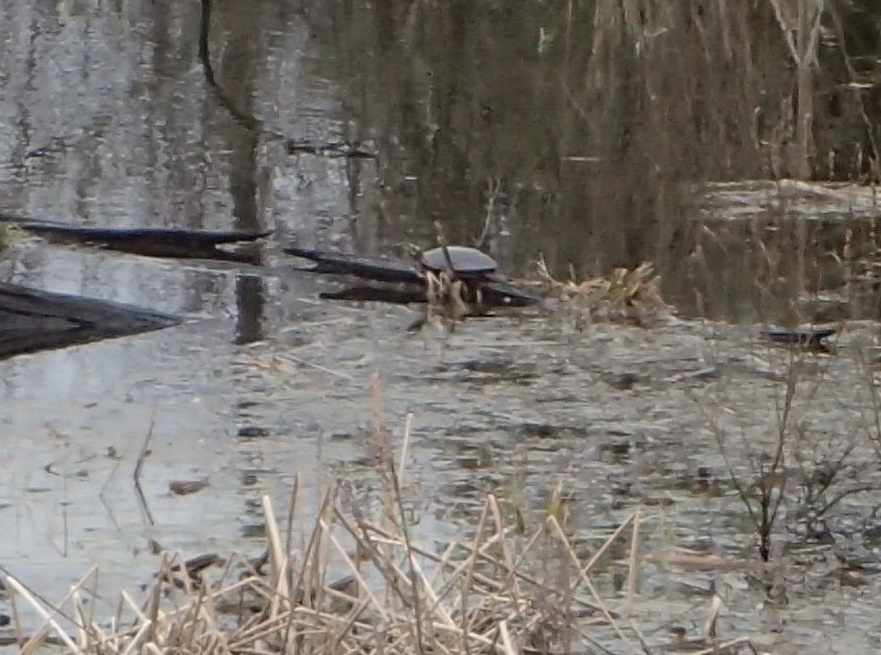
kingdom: Animalia
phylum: Chordata
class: Testudines
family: Emydidae
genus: Chrysemys
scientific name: Chrysemys picta
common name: Painted turtle
